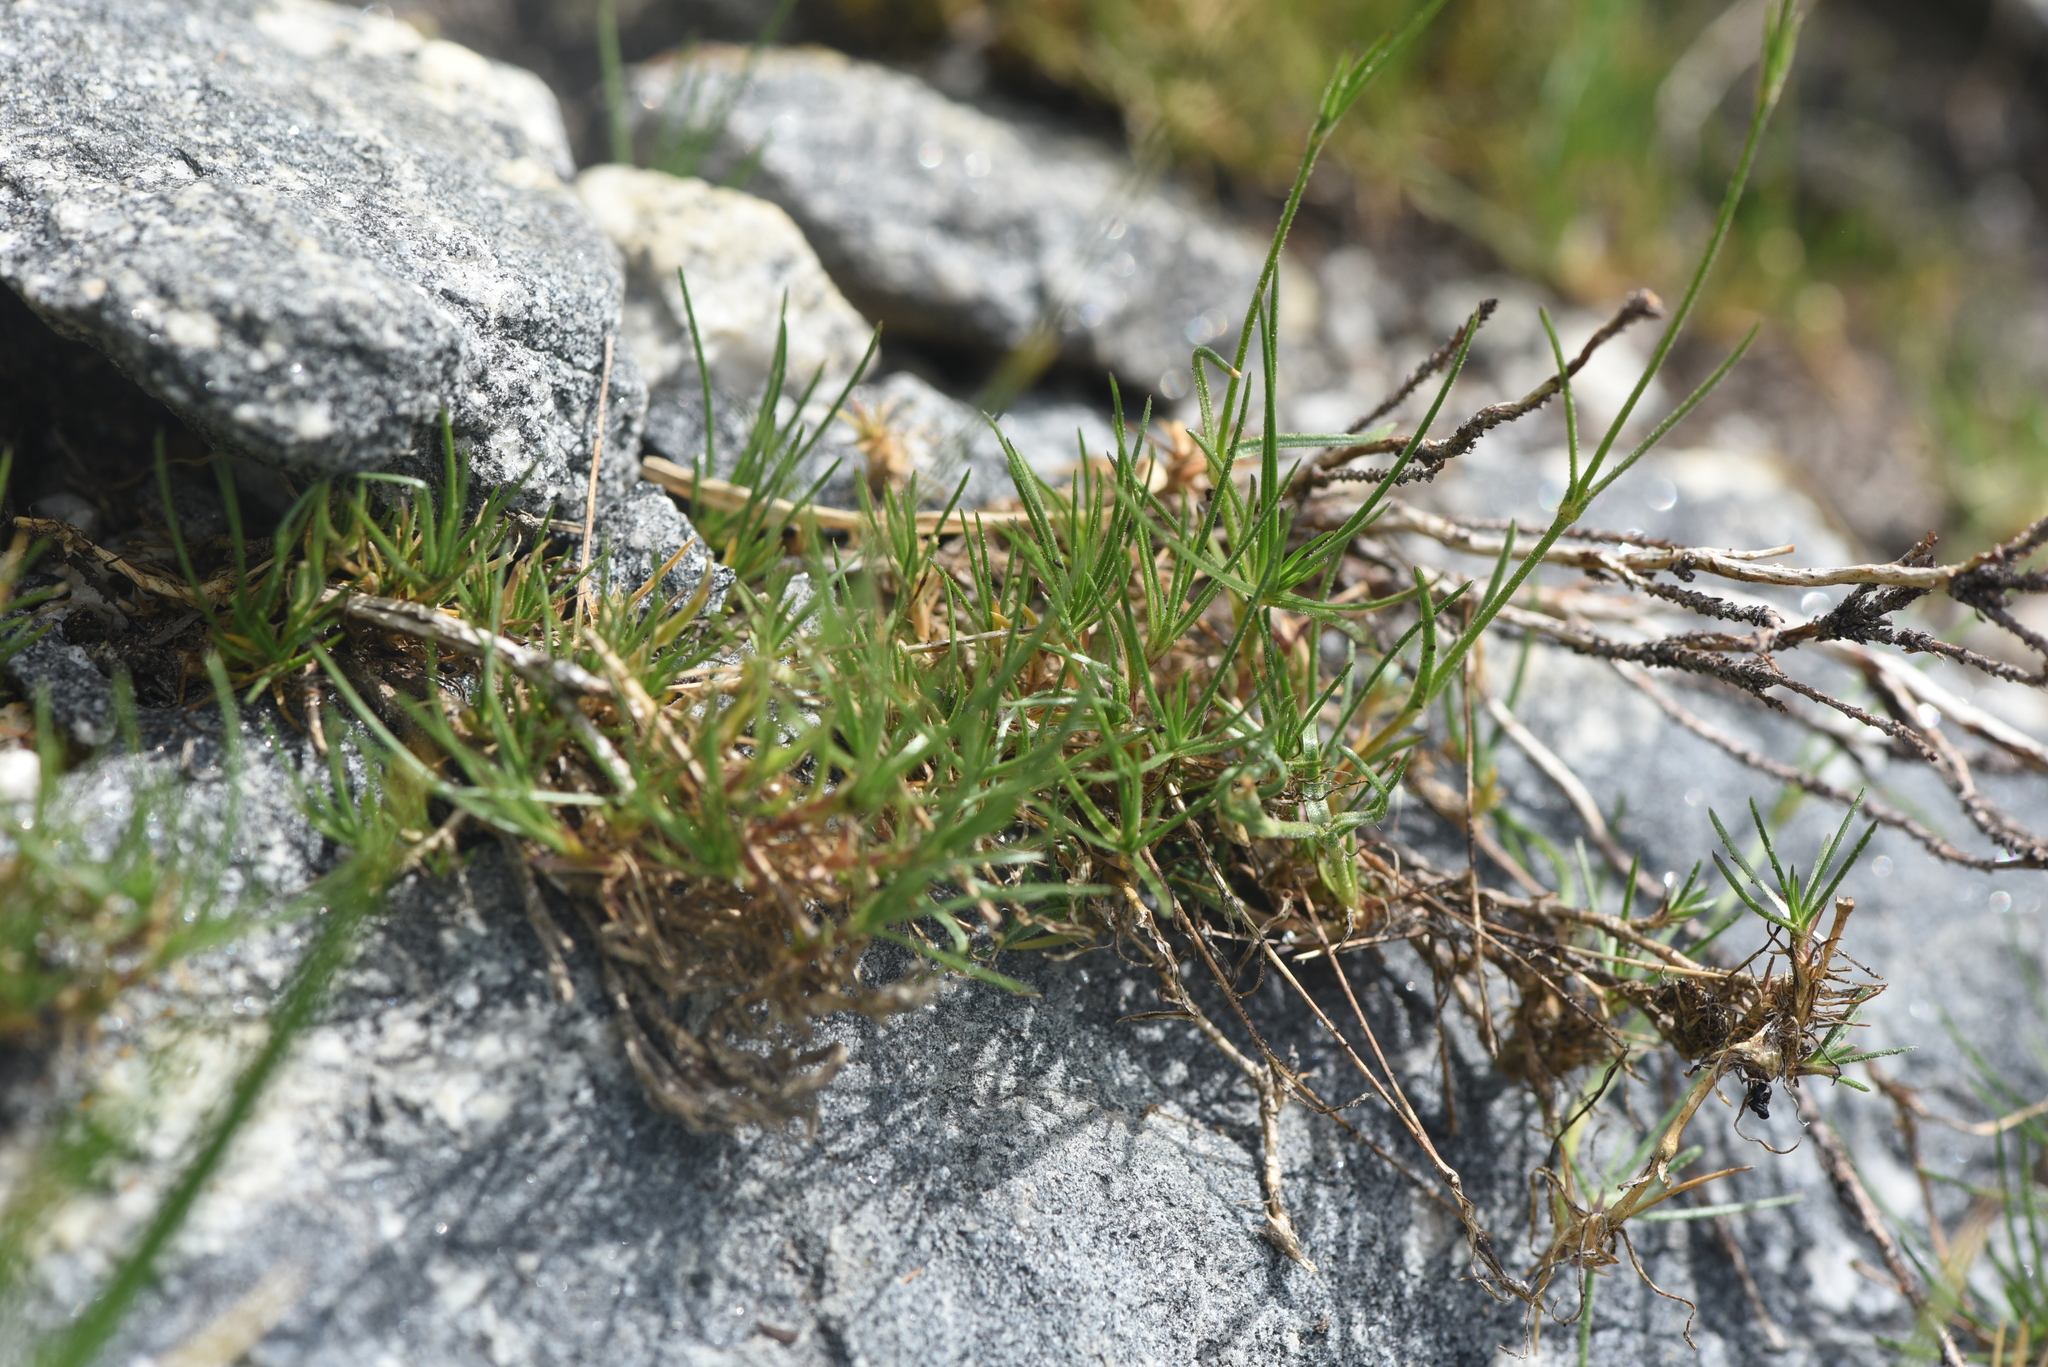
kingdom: Plantae
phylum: Tracheophyta
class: Magnoliopsida
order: Caryophyllales
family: Caryophyllaceae
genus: Eremogone
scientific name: Eremogone capillaris
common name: Slender mountain sandwort
